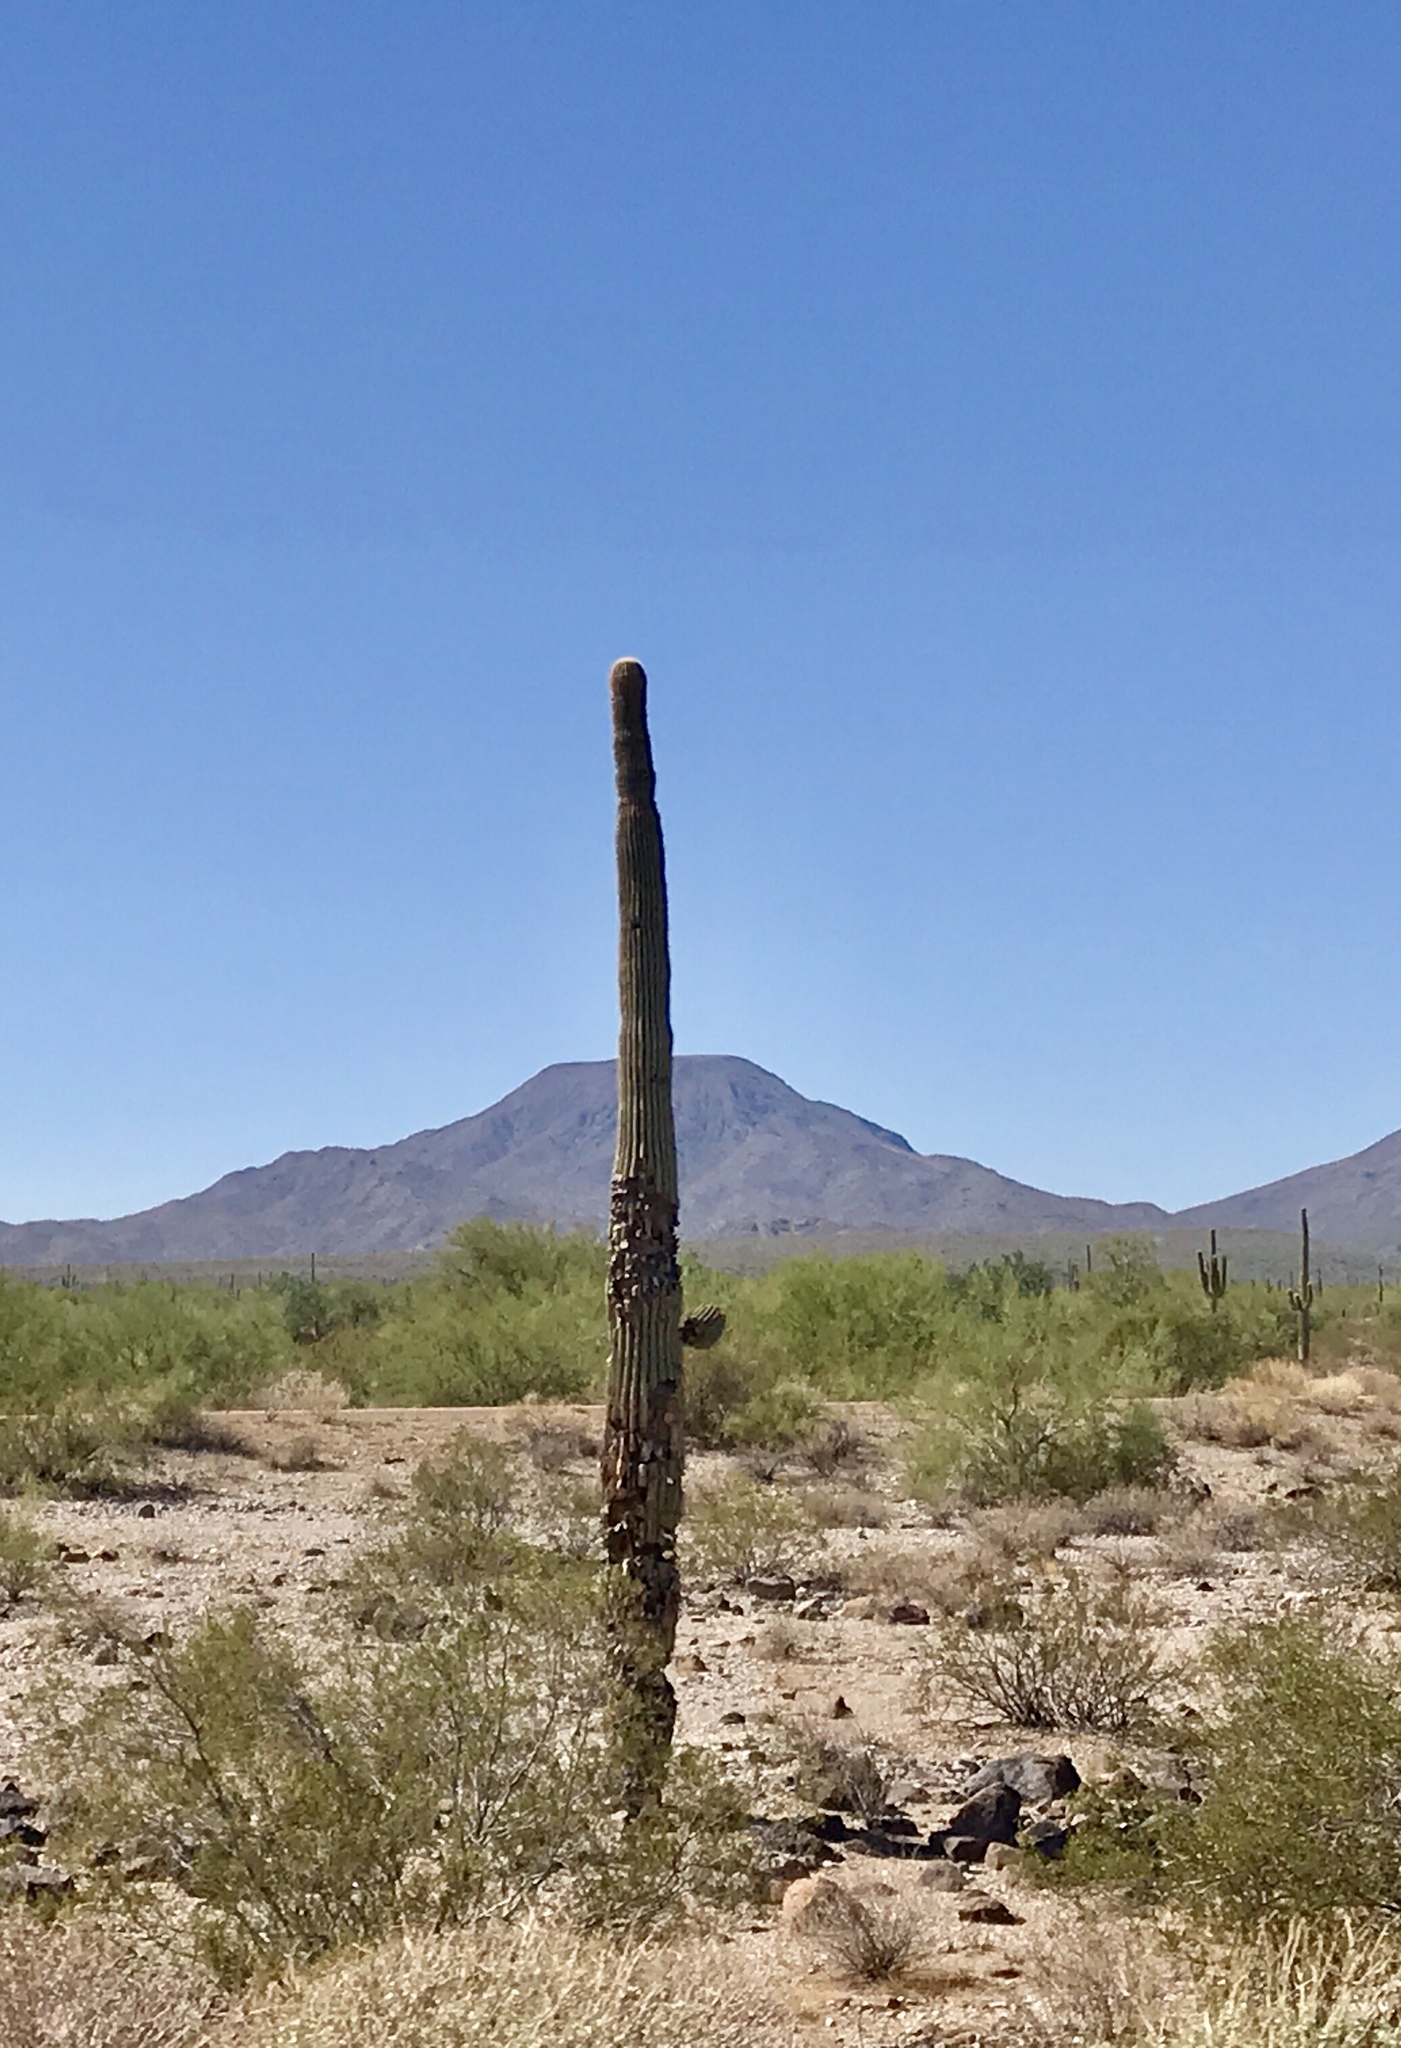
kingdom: Plantae
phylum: Tracheophyta
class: Magnoliopsida
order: Caryophyllales
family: Cactaceae
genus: Carnegiea
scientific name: Carnegiea gigantea
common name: Saguaro
